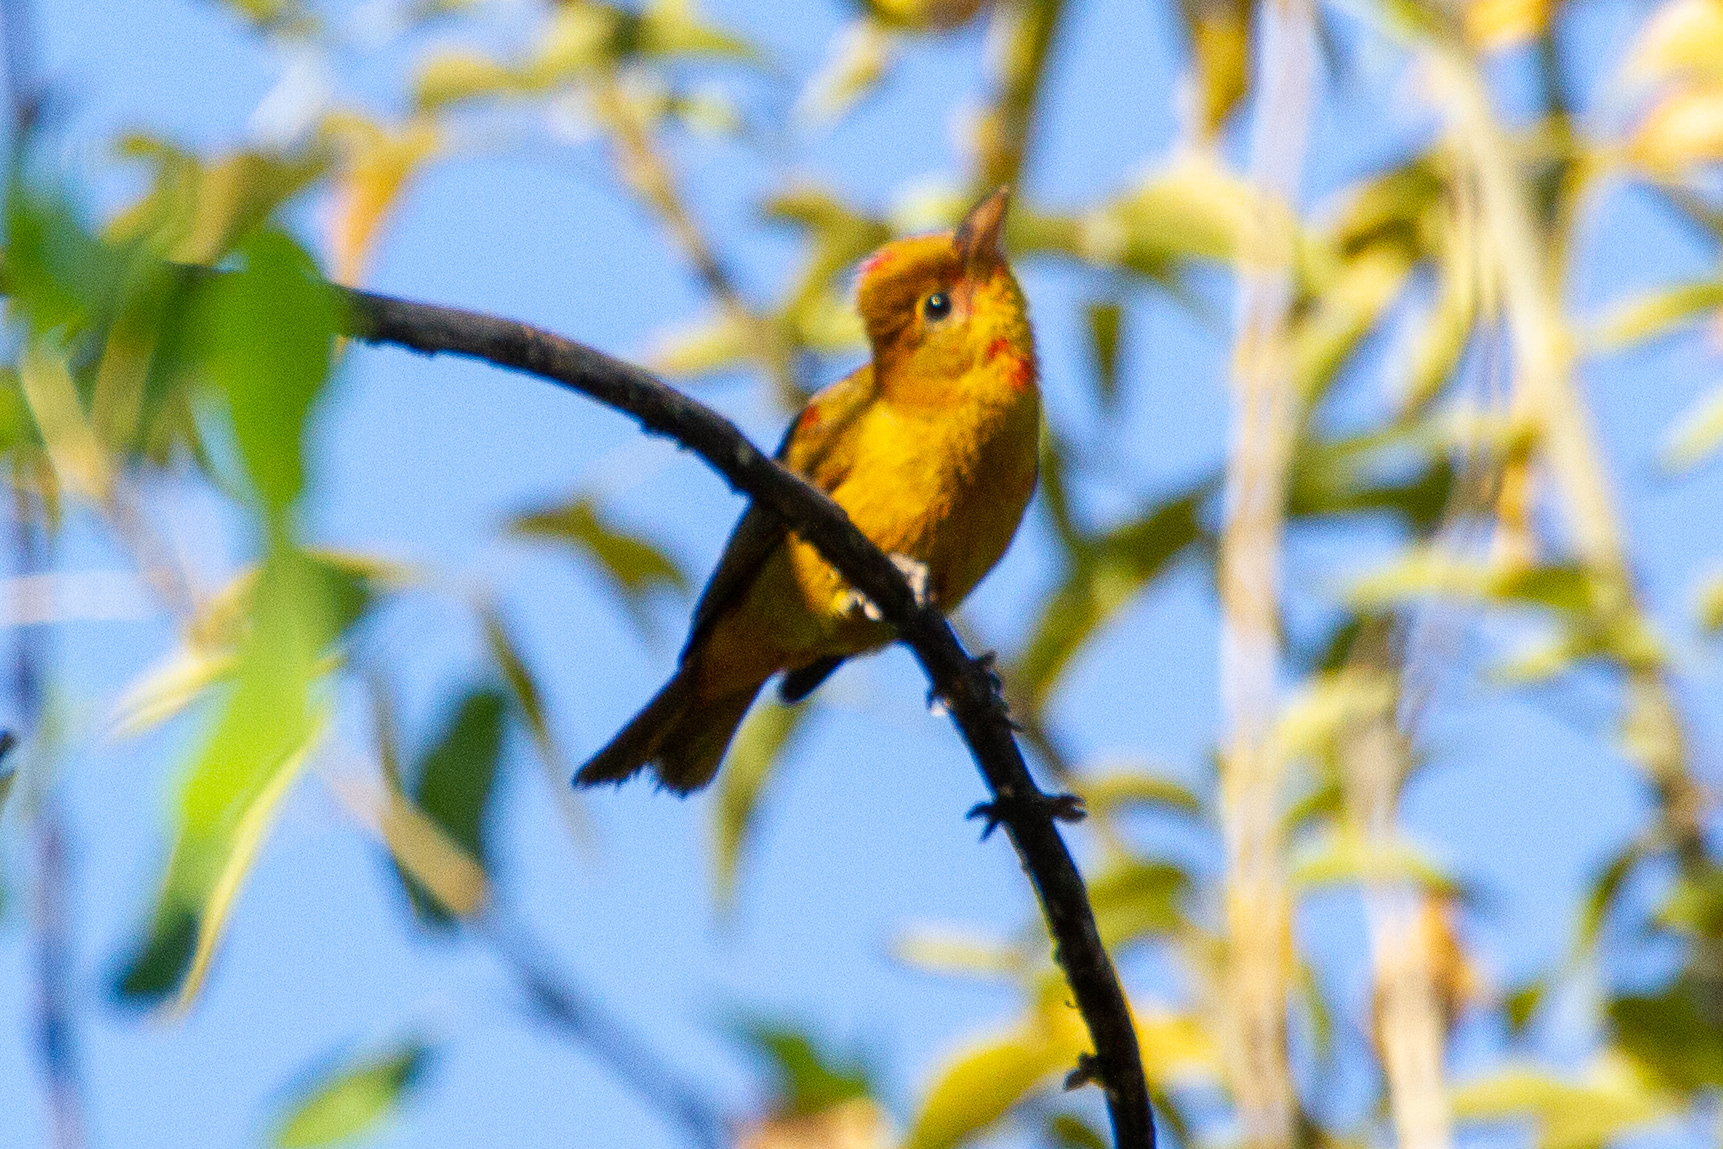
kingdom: Animalia
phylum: Chordata
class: Aves
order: Passeriformes
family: Cardinalidae
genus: Piranga
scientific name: Piranga rubra
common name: Summer tanager
